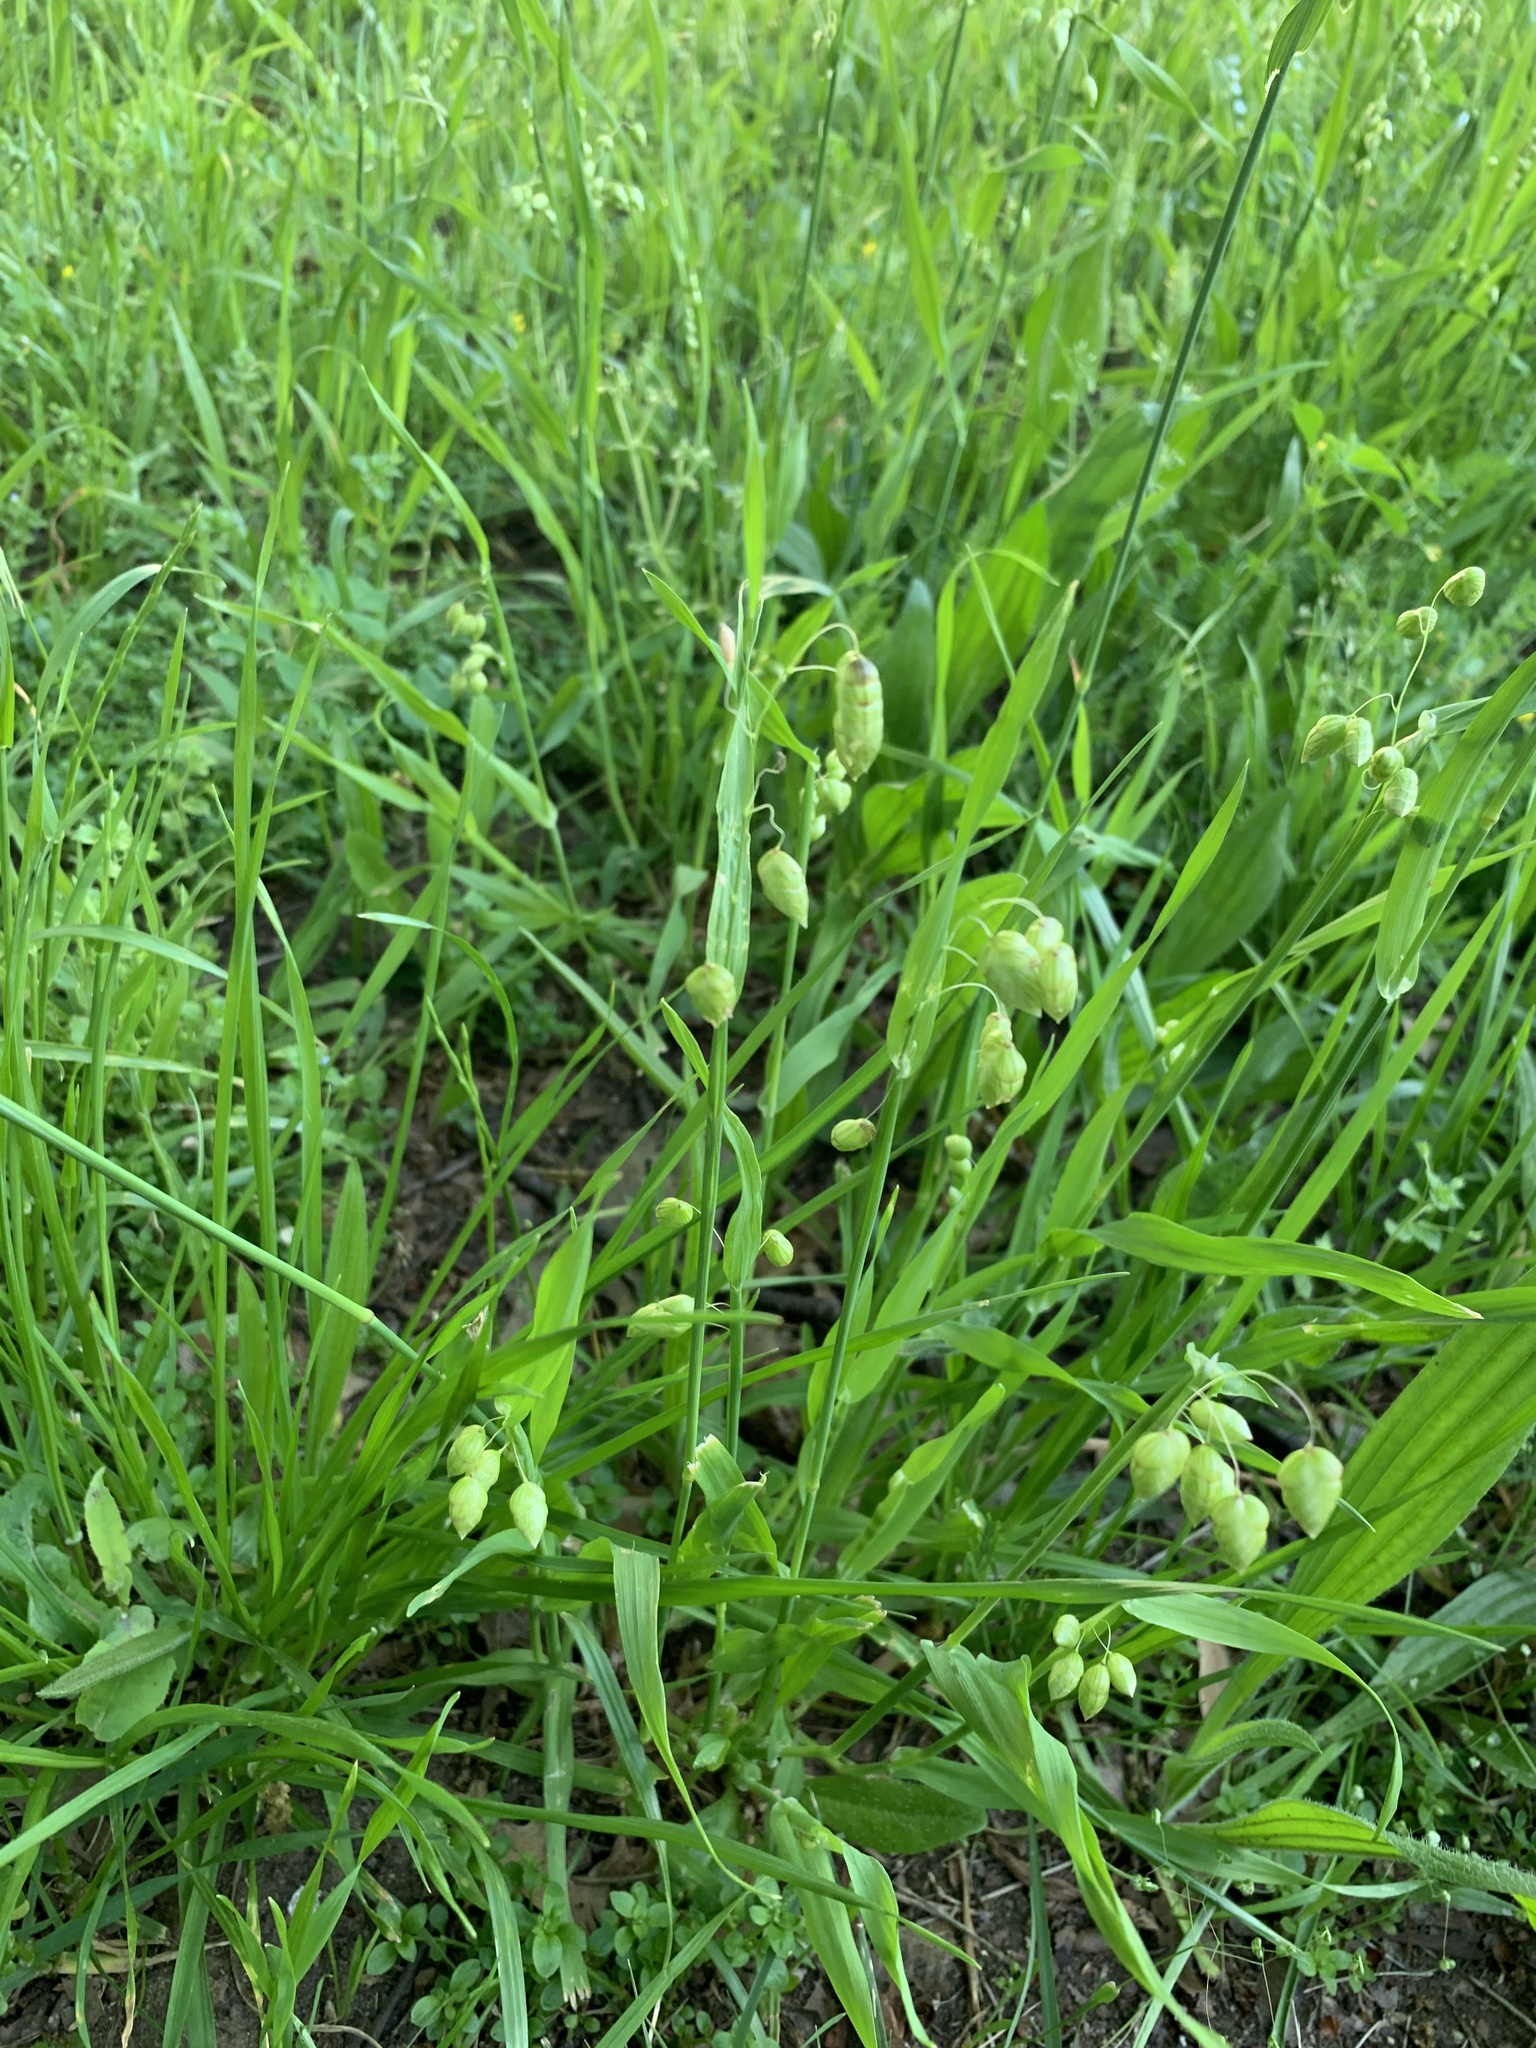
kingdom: Plantae
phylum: Tracheophyta
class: Liliopsida
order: Poales
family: Poaceae
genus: Briza
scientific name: Briza maxima
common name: Big quakinggrass
